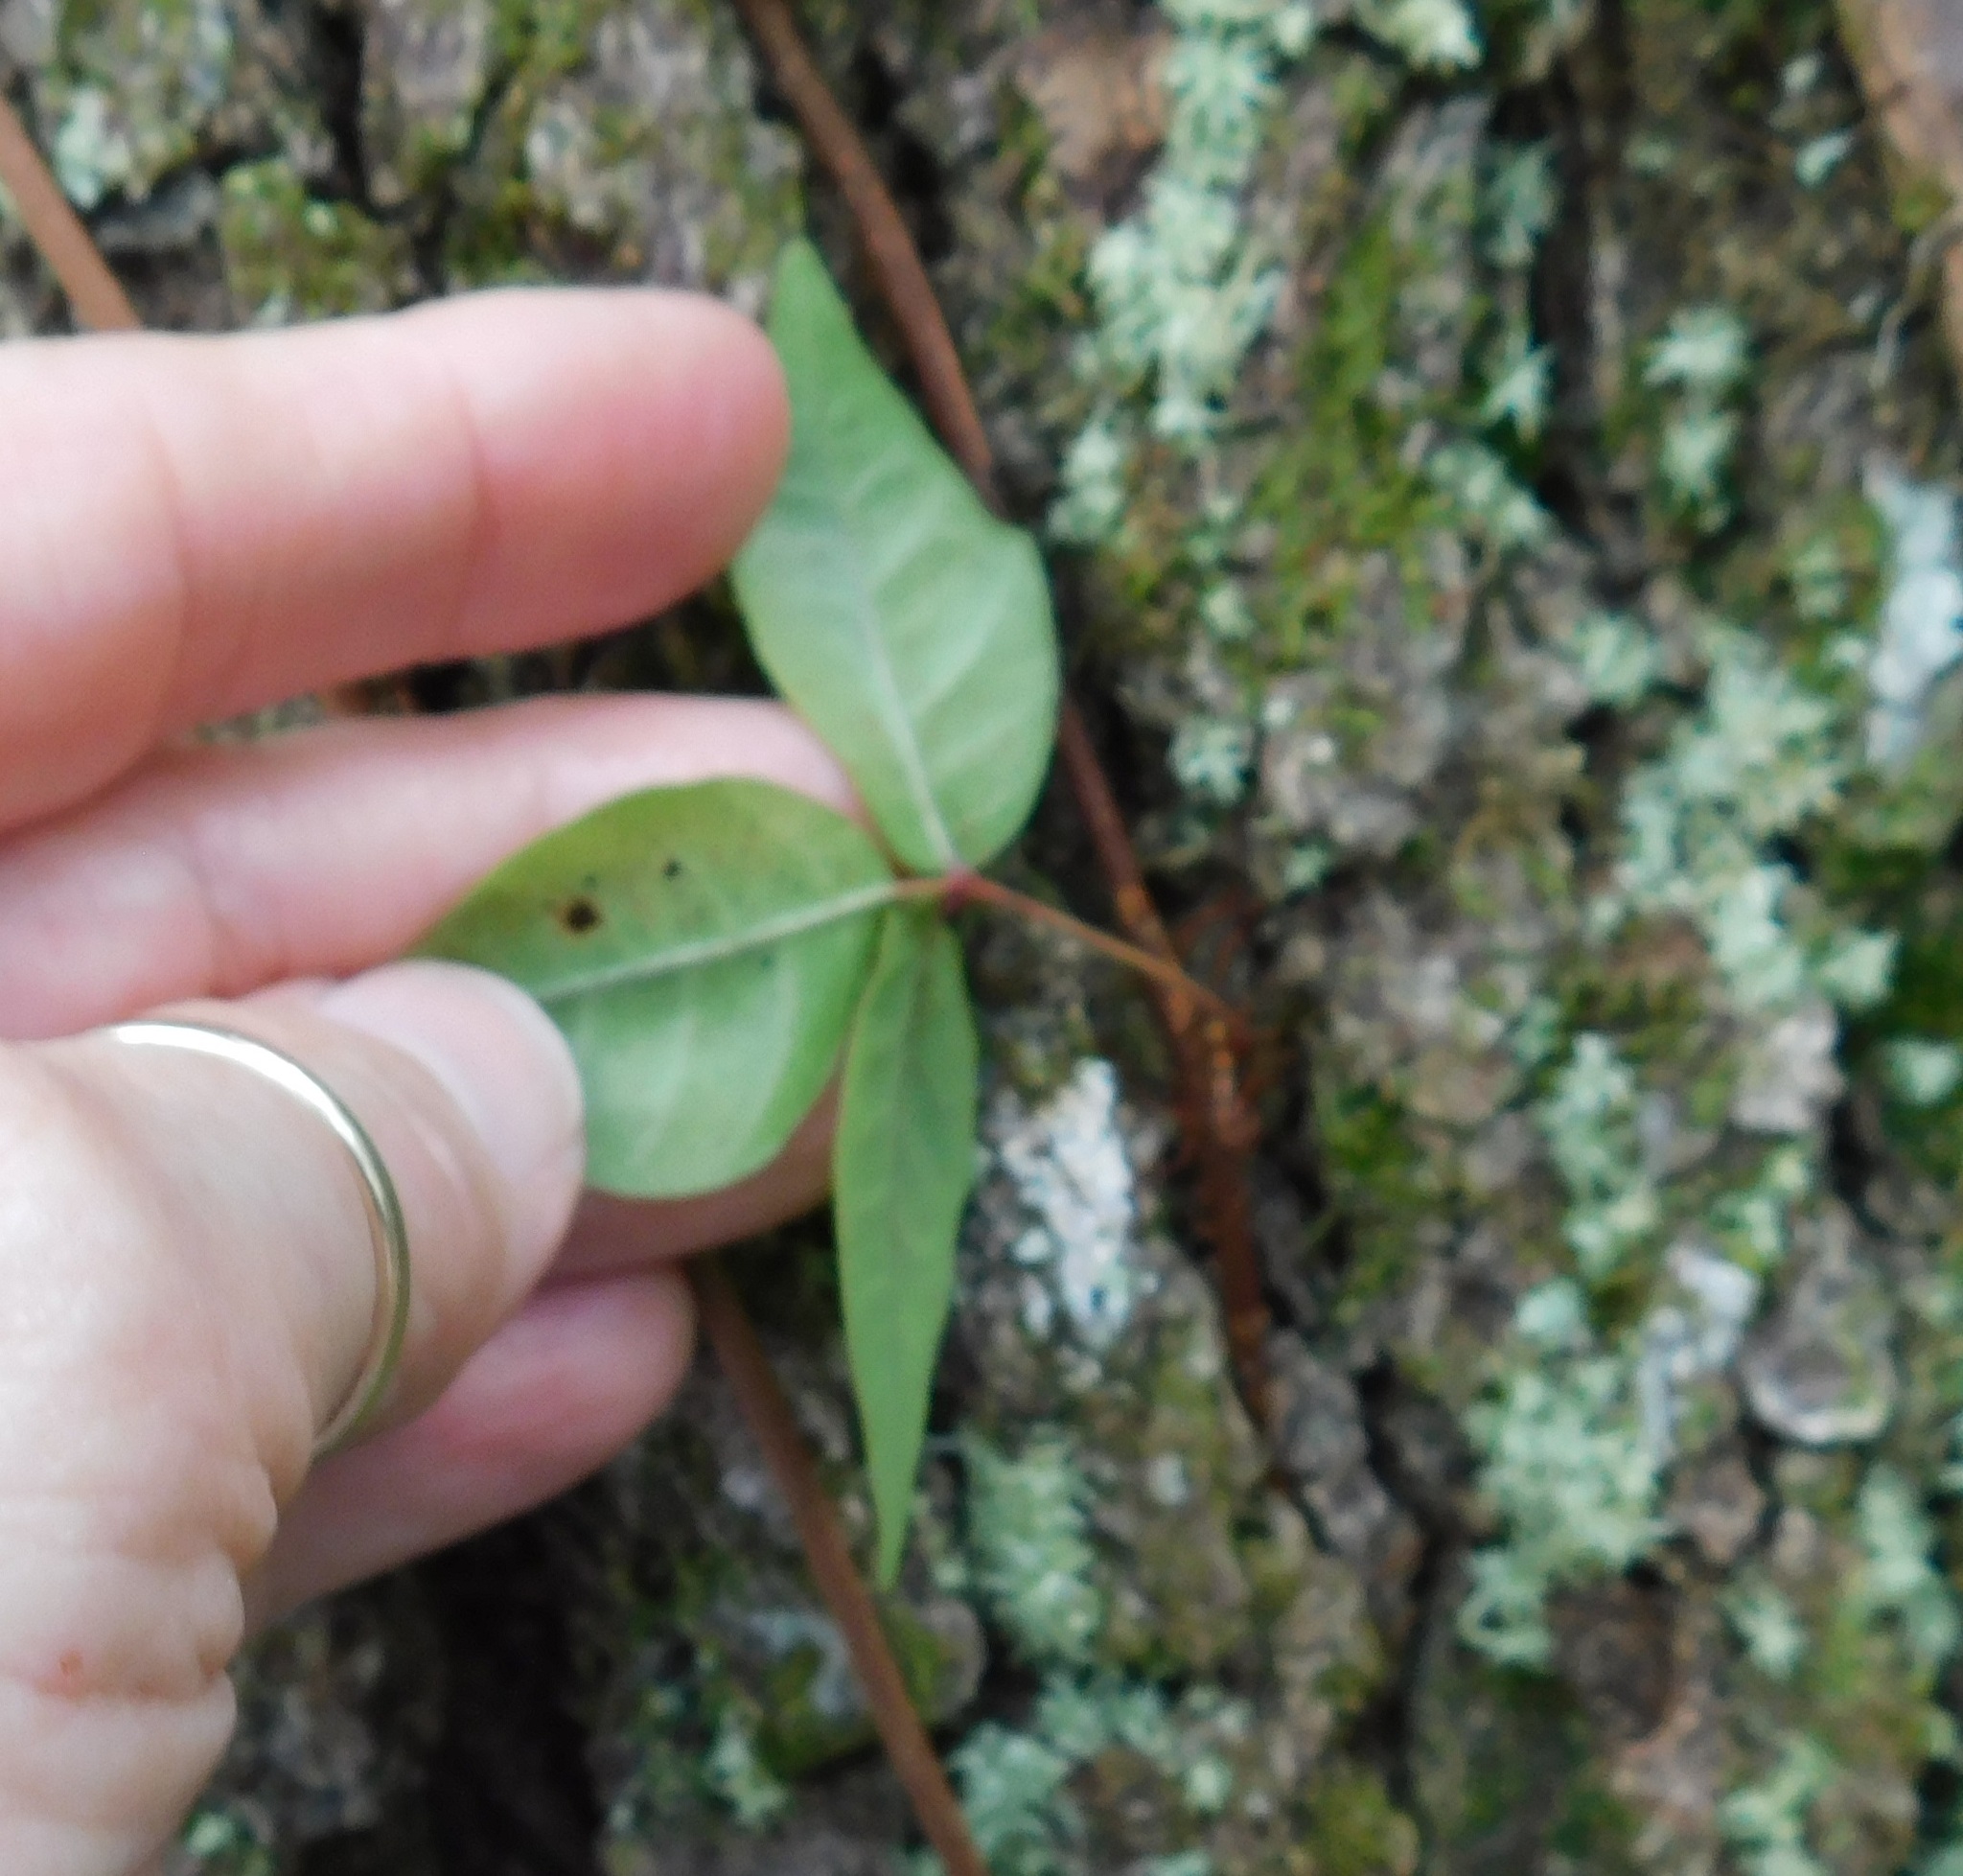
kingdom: Plantae
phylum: Tracheophyta
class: Magnoliopsida
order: Sapindales
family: Anacardiaceae
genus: Toxicodendron
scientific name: Toxicodendron radicans
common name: Poison ivy
